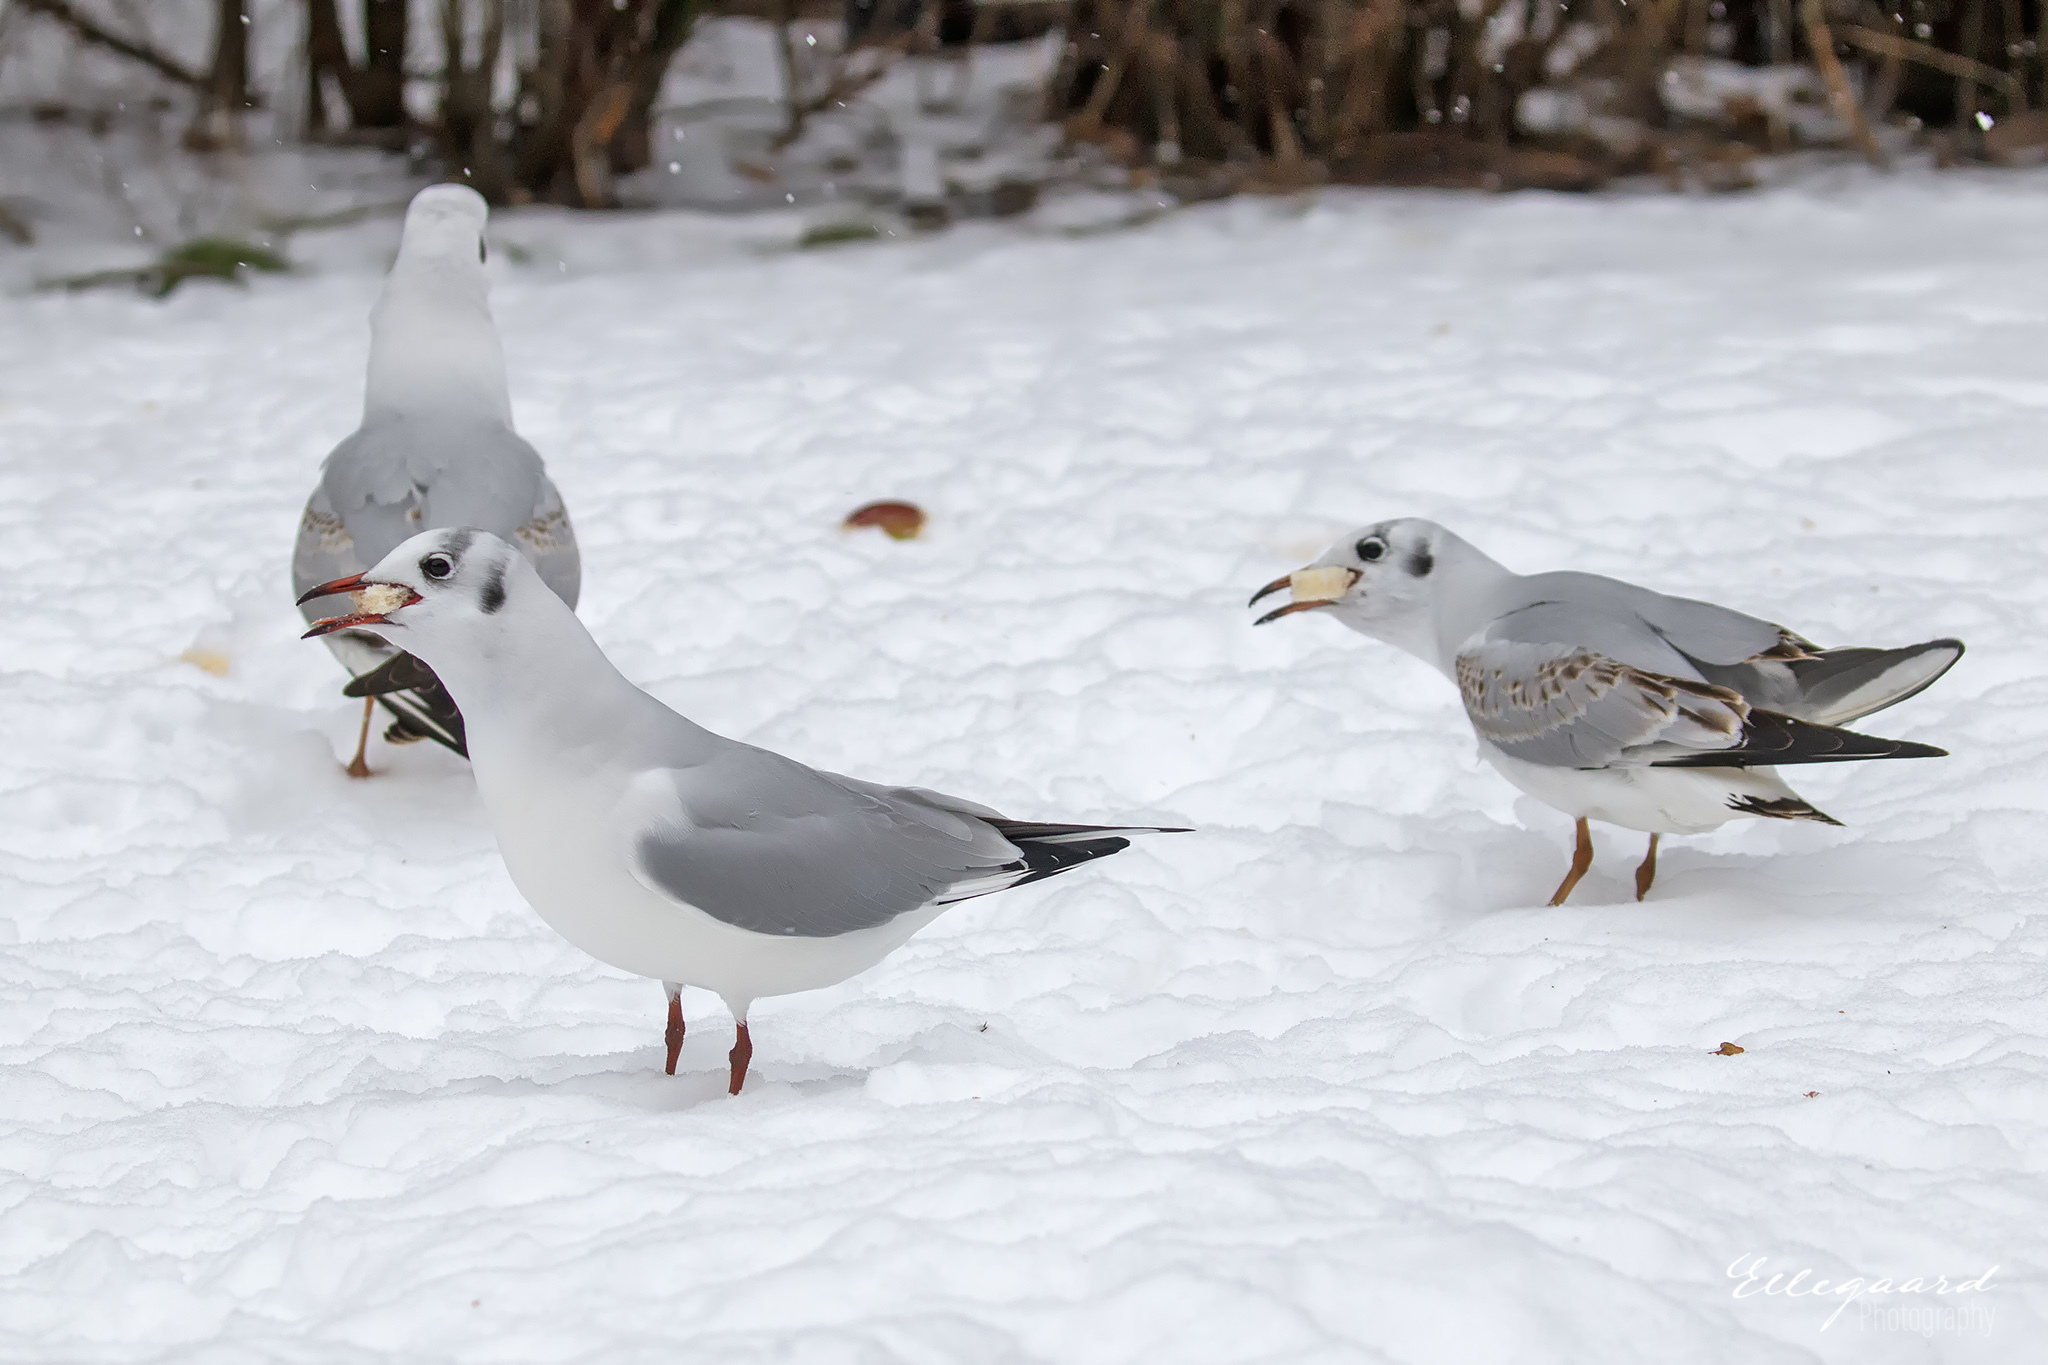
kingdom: Animalia
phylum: Chordata
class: Aves
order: Charadriiformes
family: Laridae
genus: Chroicocephalus
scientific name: Chroicocephalus ridibundus
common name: Black-headed gull
